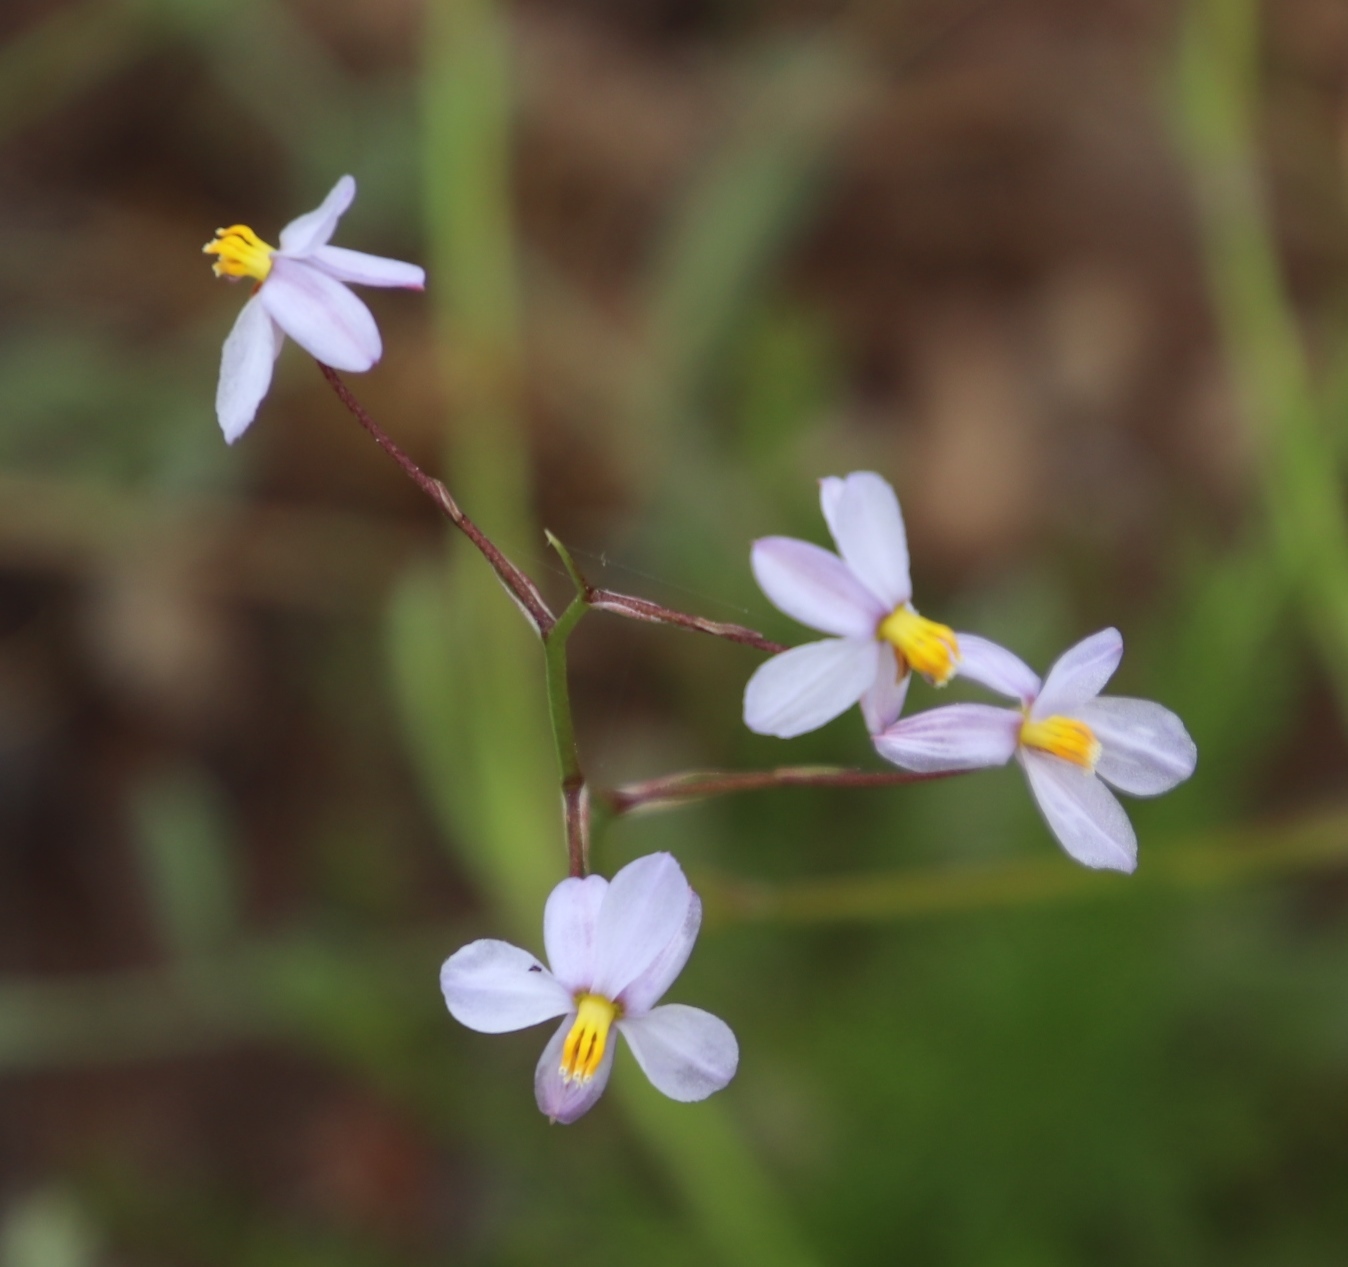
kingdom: Plantae
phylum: Tracheophyta
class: Liliopsida
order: Asparagales
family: Tecophilaeaceae
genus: Cyanella
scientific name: Cyanella hyacinthoides
